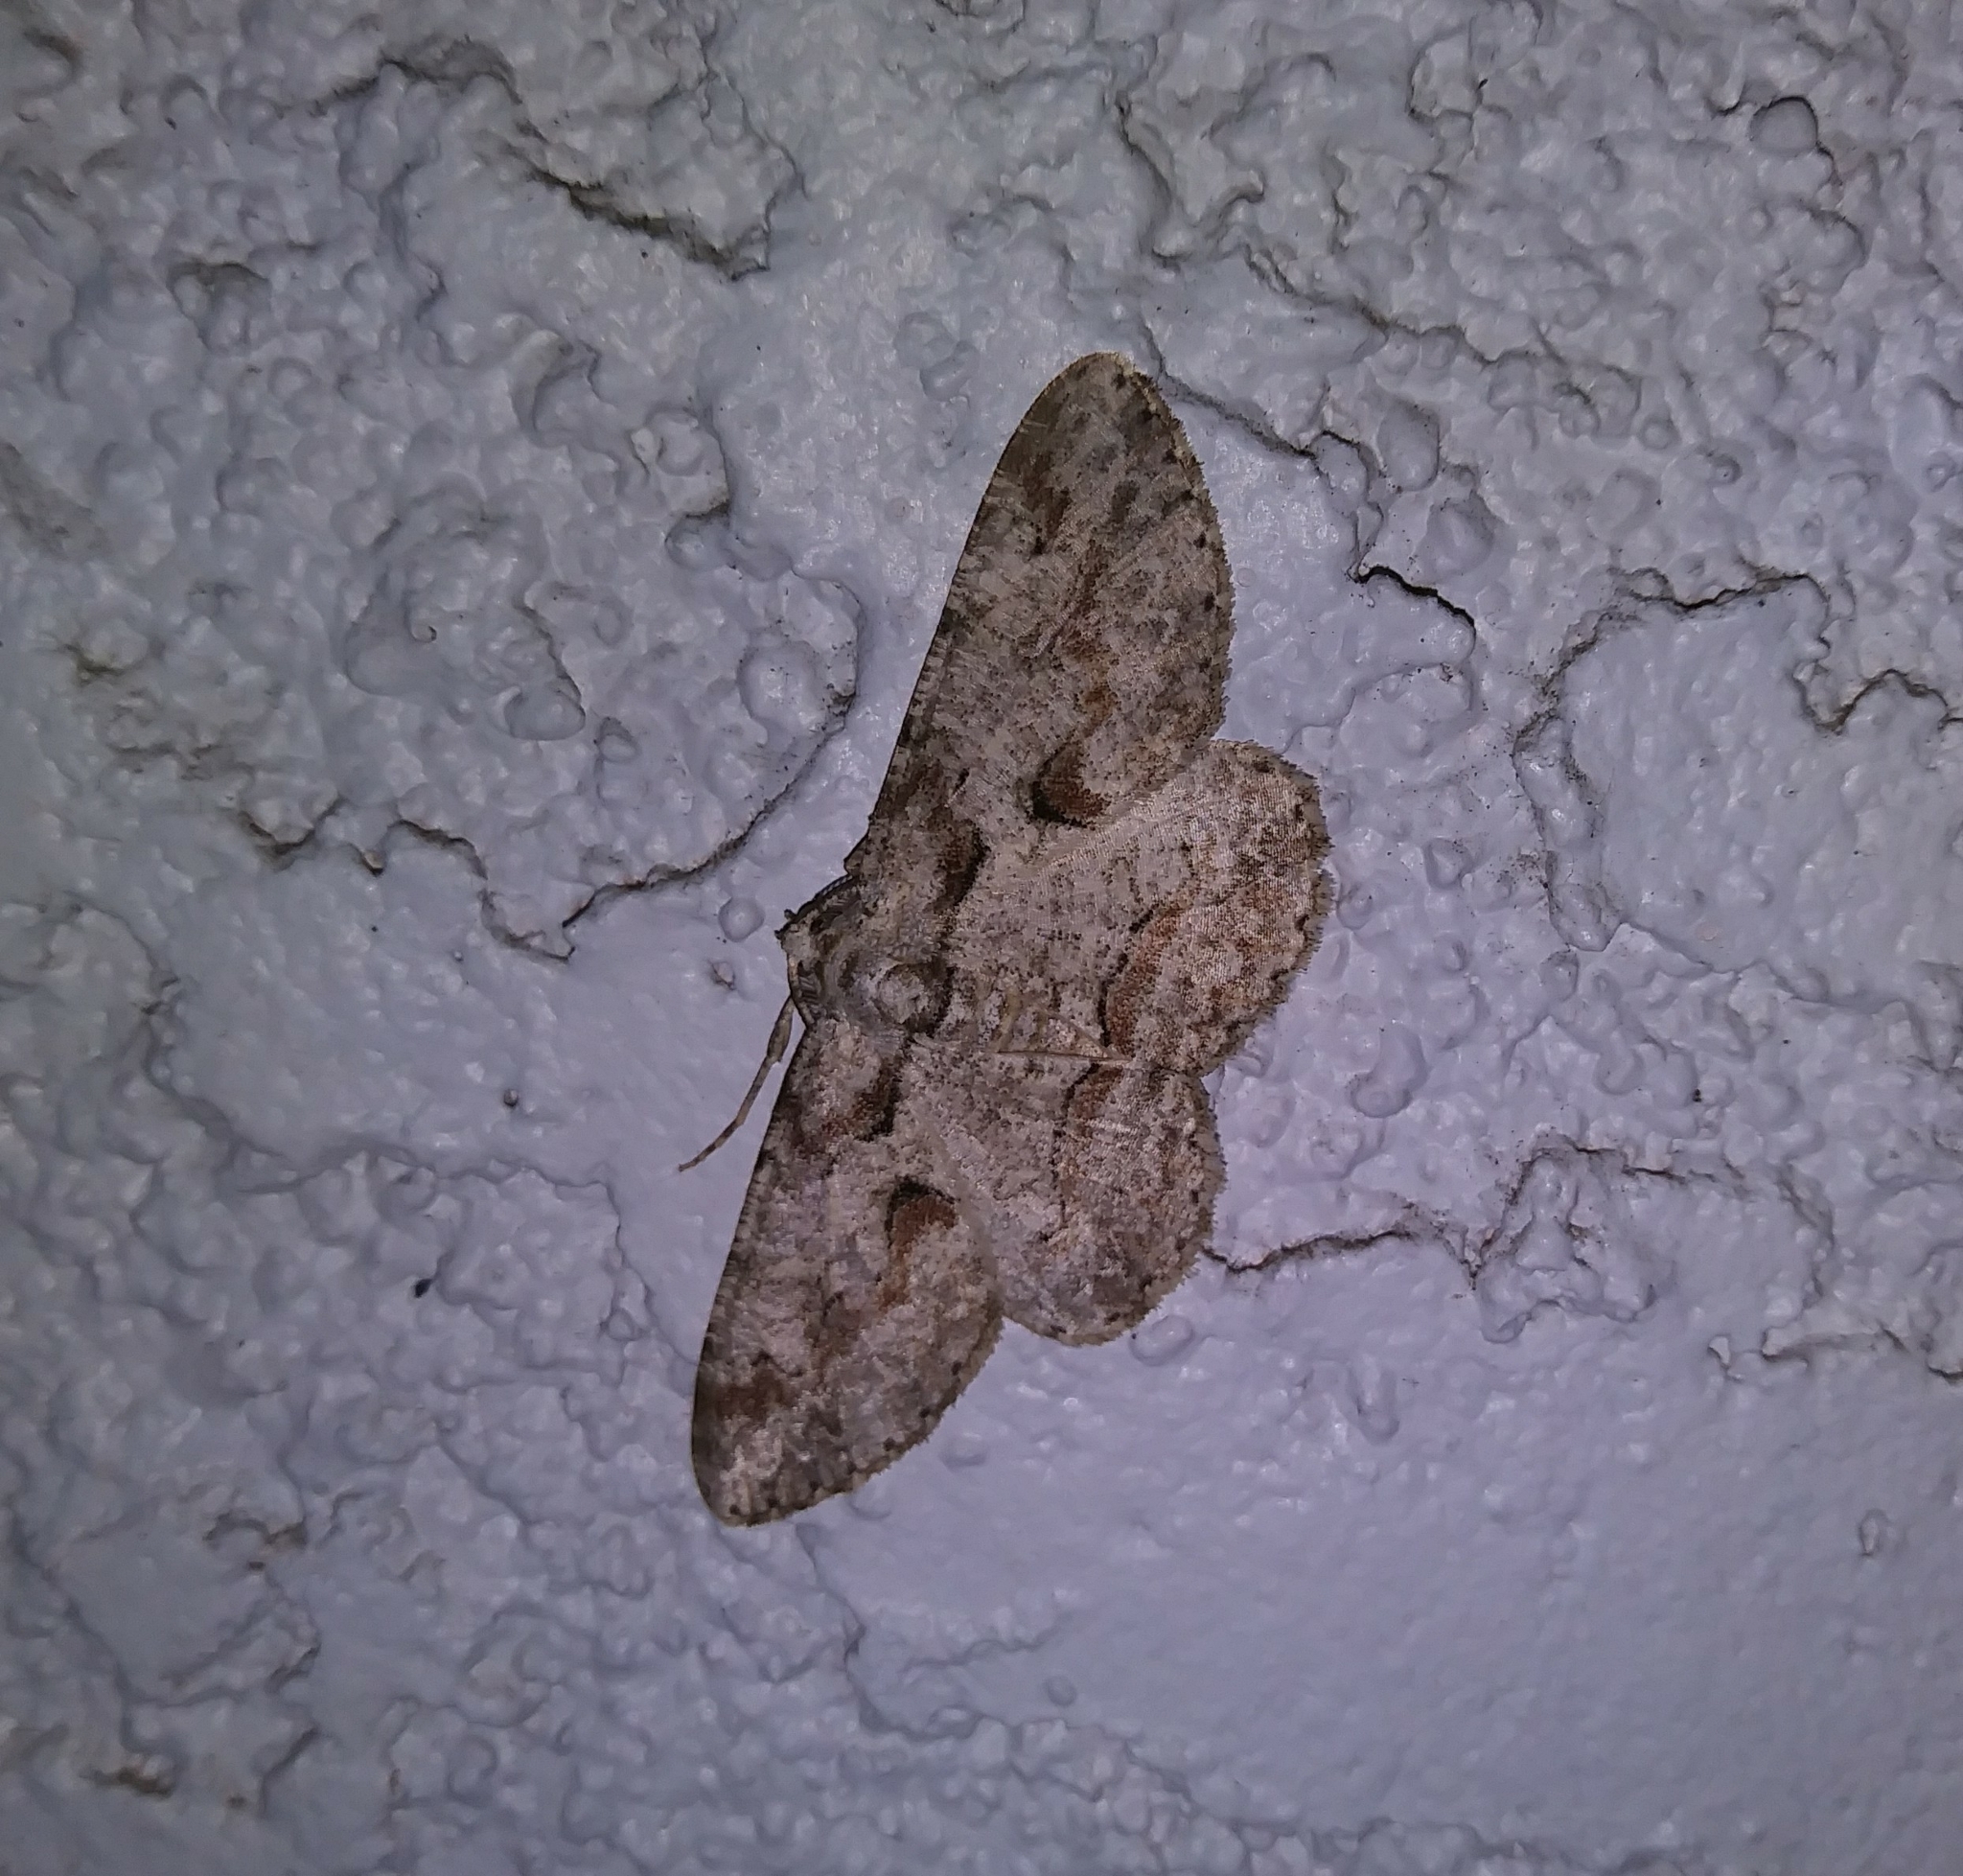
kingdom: Animalia
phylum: Arthropoda
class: Insecta
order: Lepidoptera
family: Geometridae
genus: Iridopsis
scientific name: Iridopsis defectaria
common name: Brown-shaded gray
